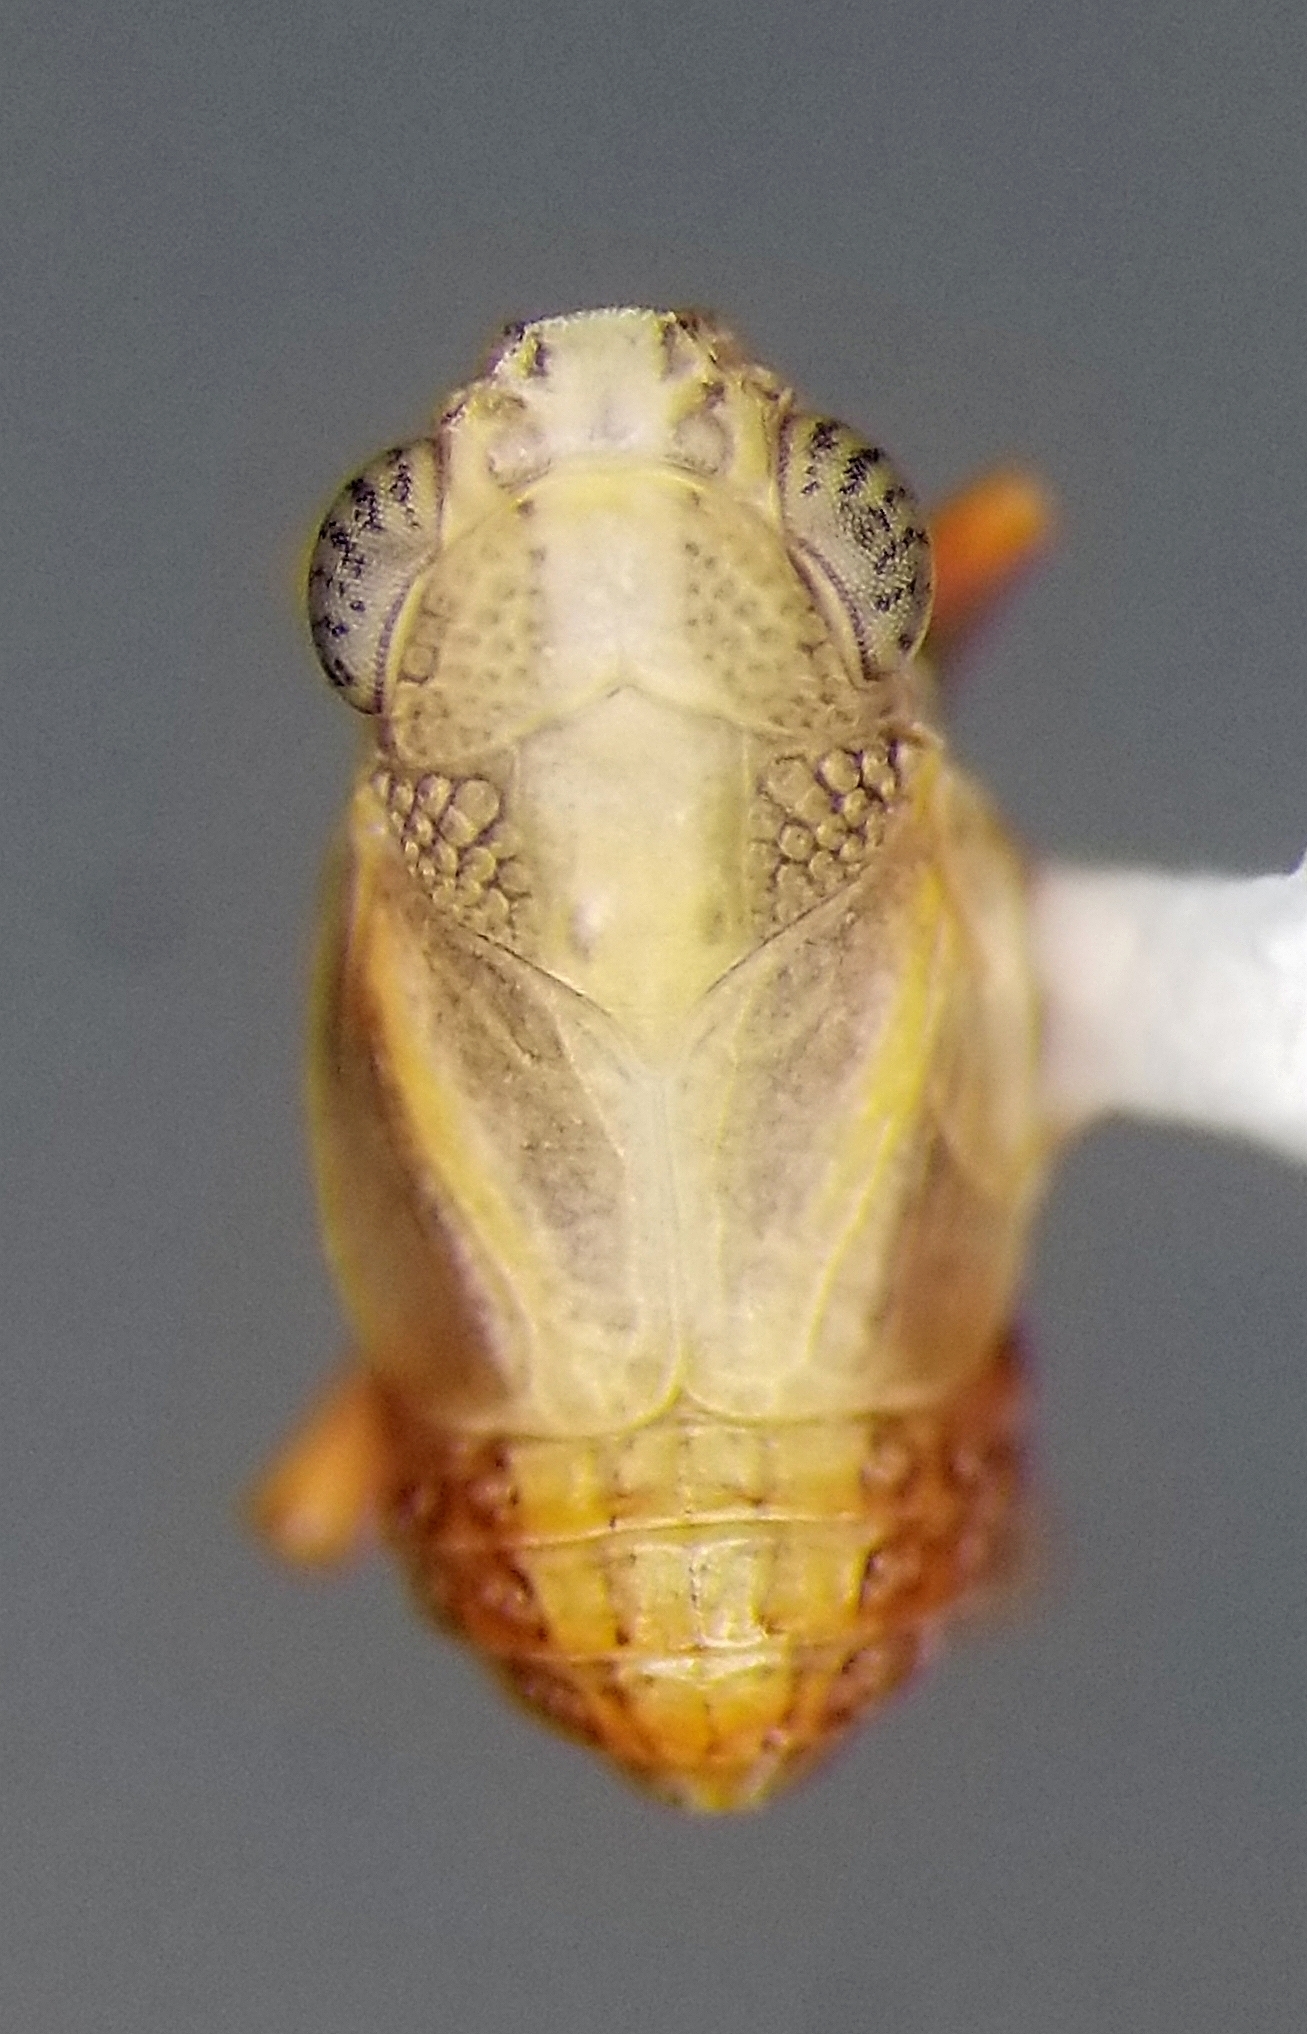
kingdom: Animalia
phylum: Arthropoda
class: Insecta
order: Hemiptera
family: Caliscelidae
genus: Nenema
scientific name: Nenema confragosa
